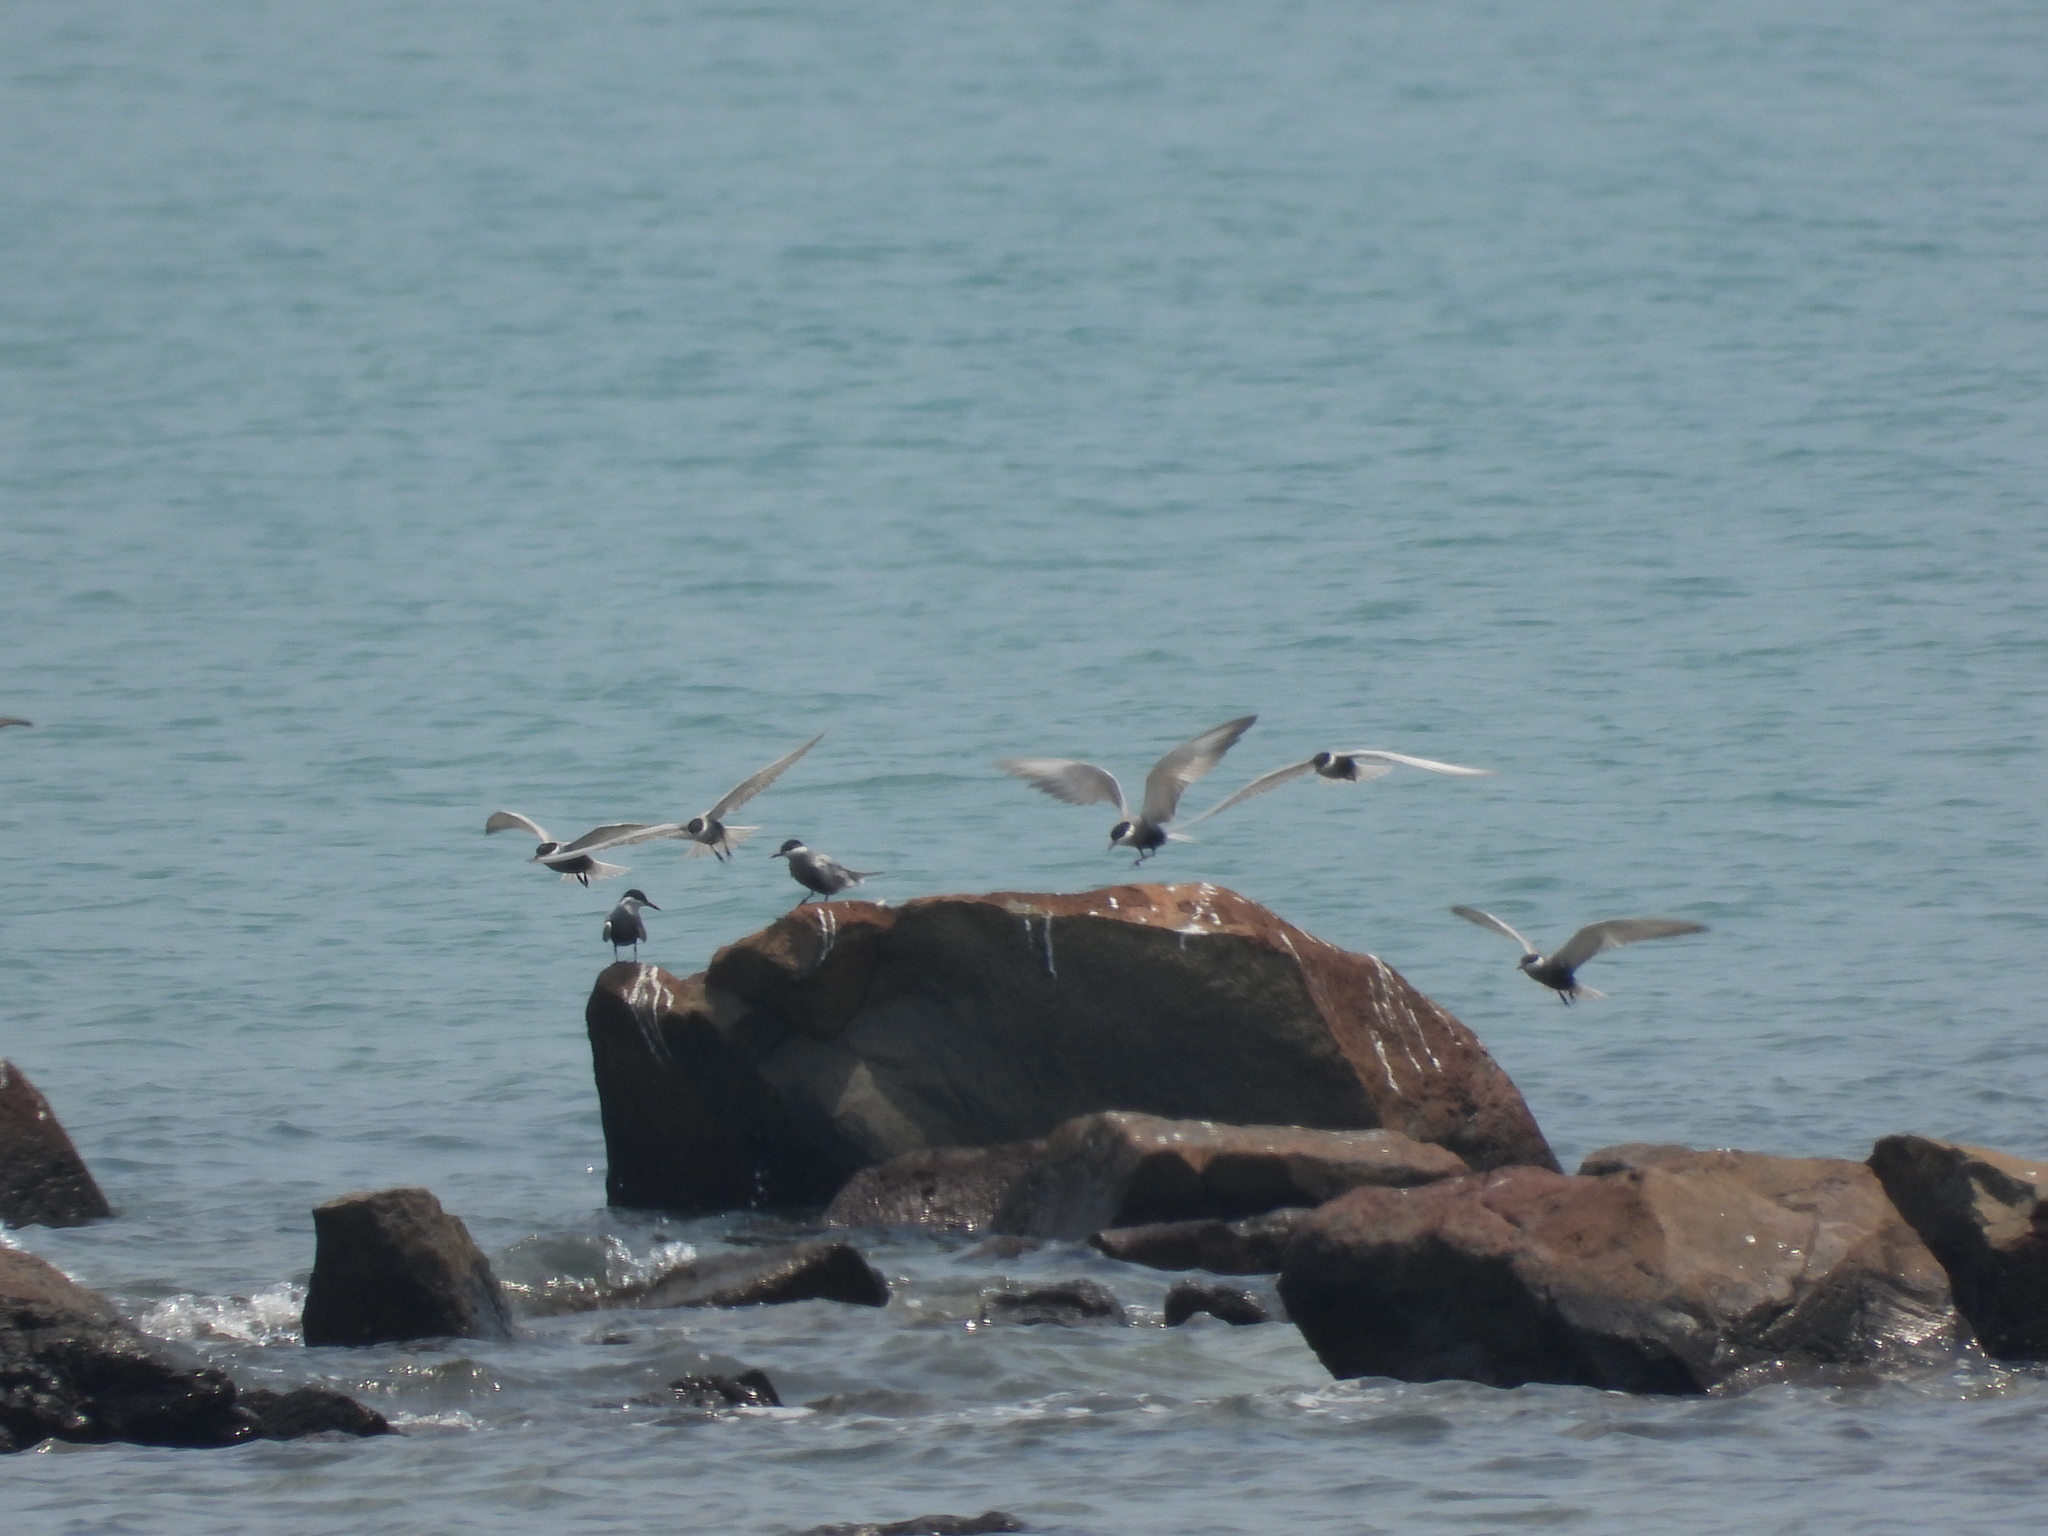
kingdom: Animalia
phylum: Chordata
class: Aves
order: Charadriiformes
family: Laridae
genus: Chlidonias
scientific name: Chlidonias hybrida
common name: Whiskered tern
